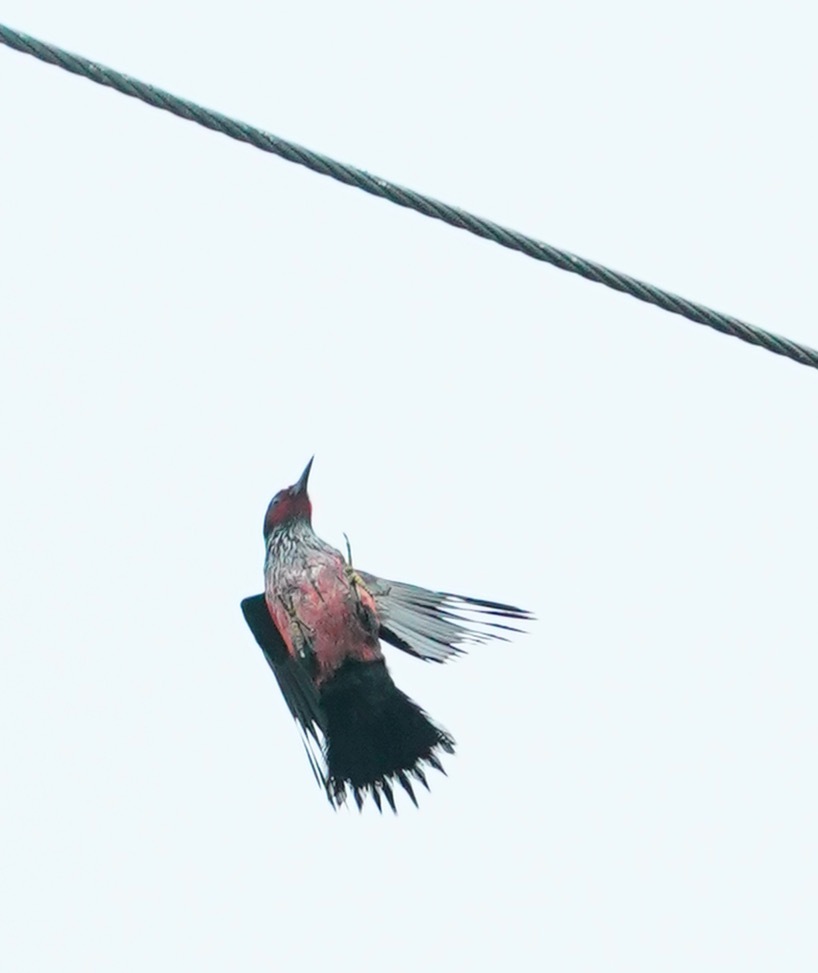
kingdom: Animalia
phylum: Chordata
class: Aves
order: Piciformes
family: Picidae
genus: Melanerpes
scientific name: Melanerpes lewis
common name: Lewis's woodpecker
